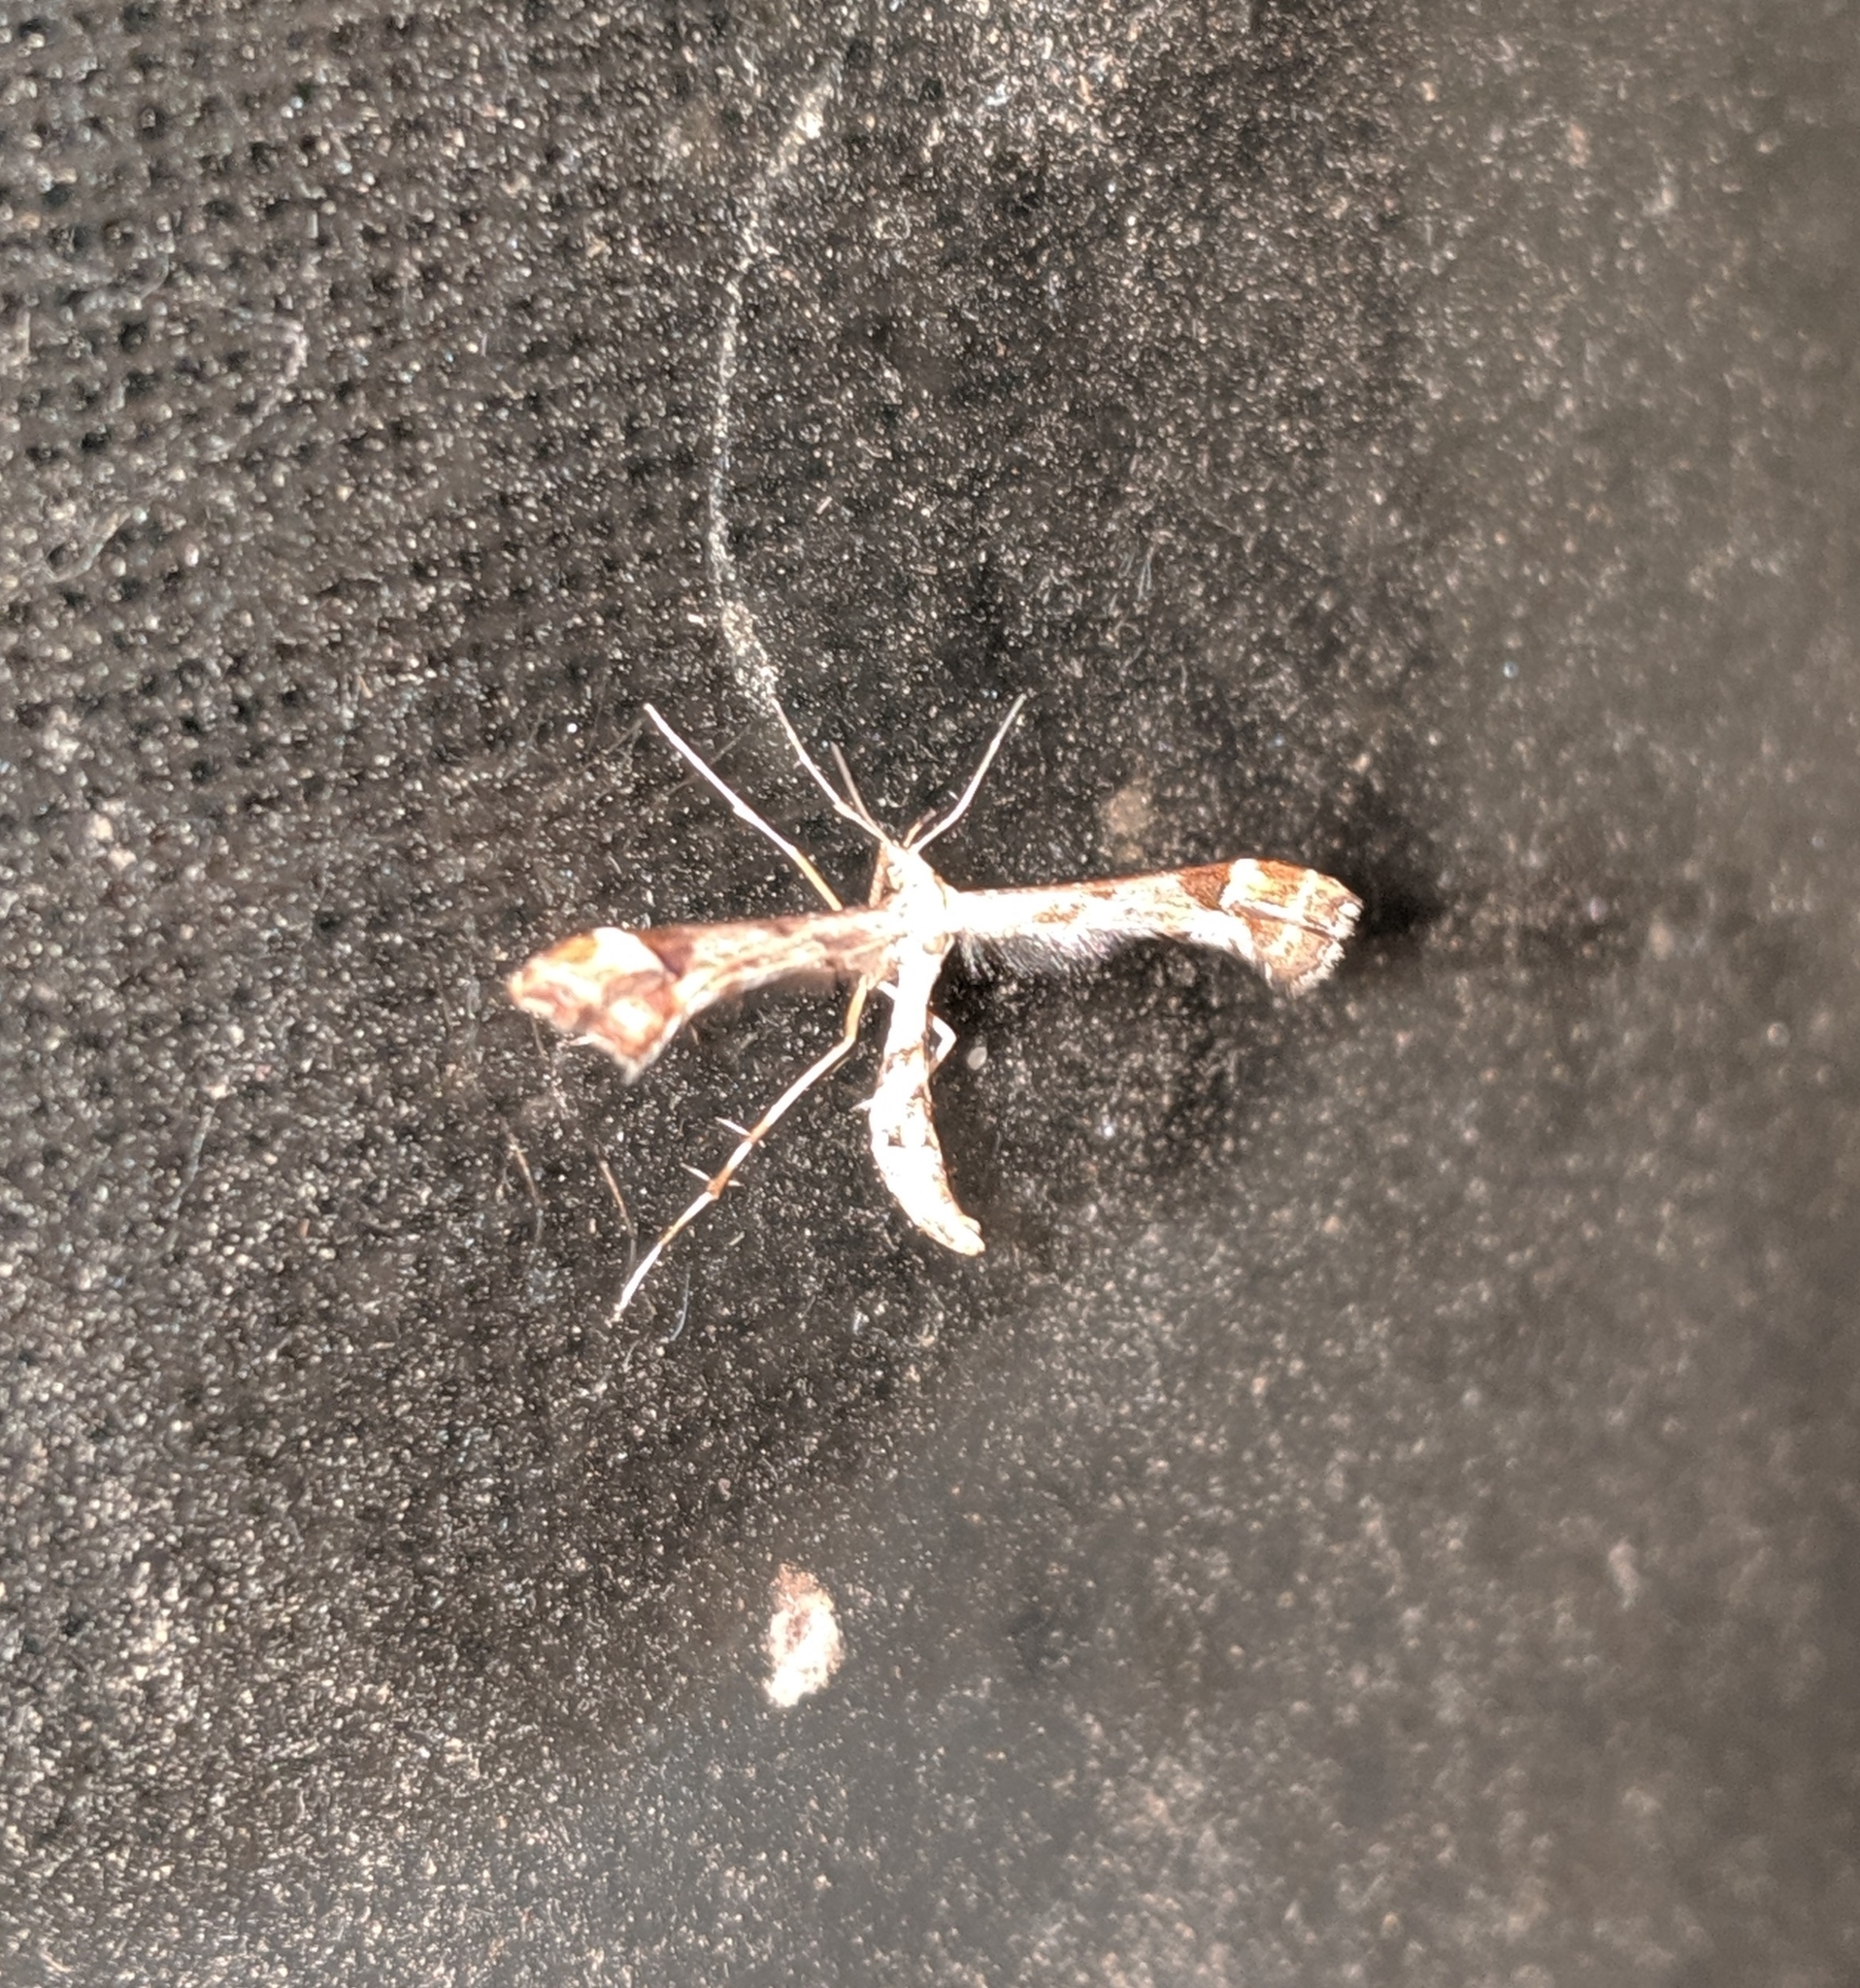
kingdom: Animalia
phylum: Arthropoda
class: Insecta
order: Lepidoptera
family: Pterophoridae
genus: Platyptilia
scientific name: Platyptilia carduidactylus
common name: Artichoke plume moth
